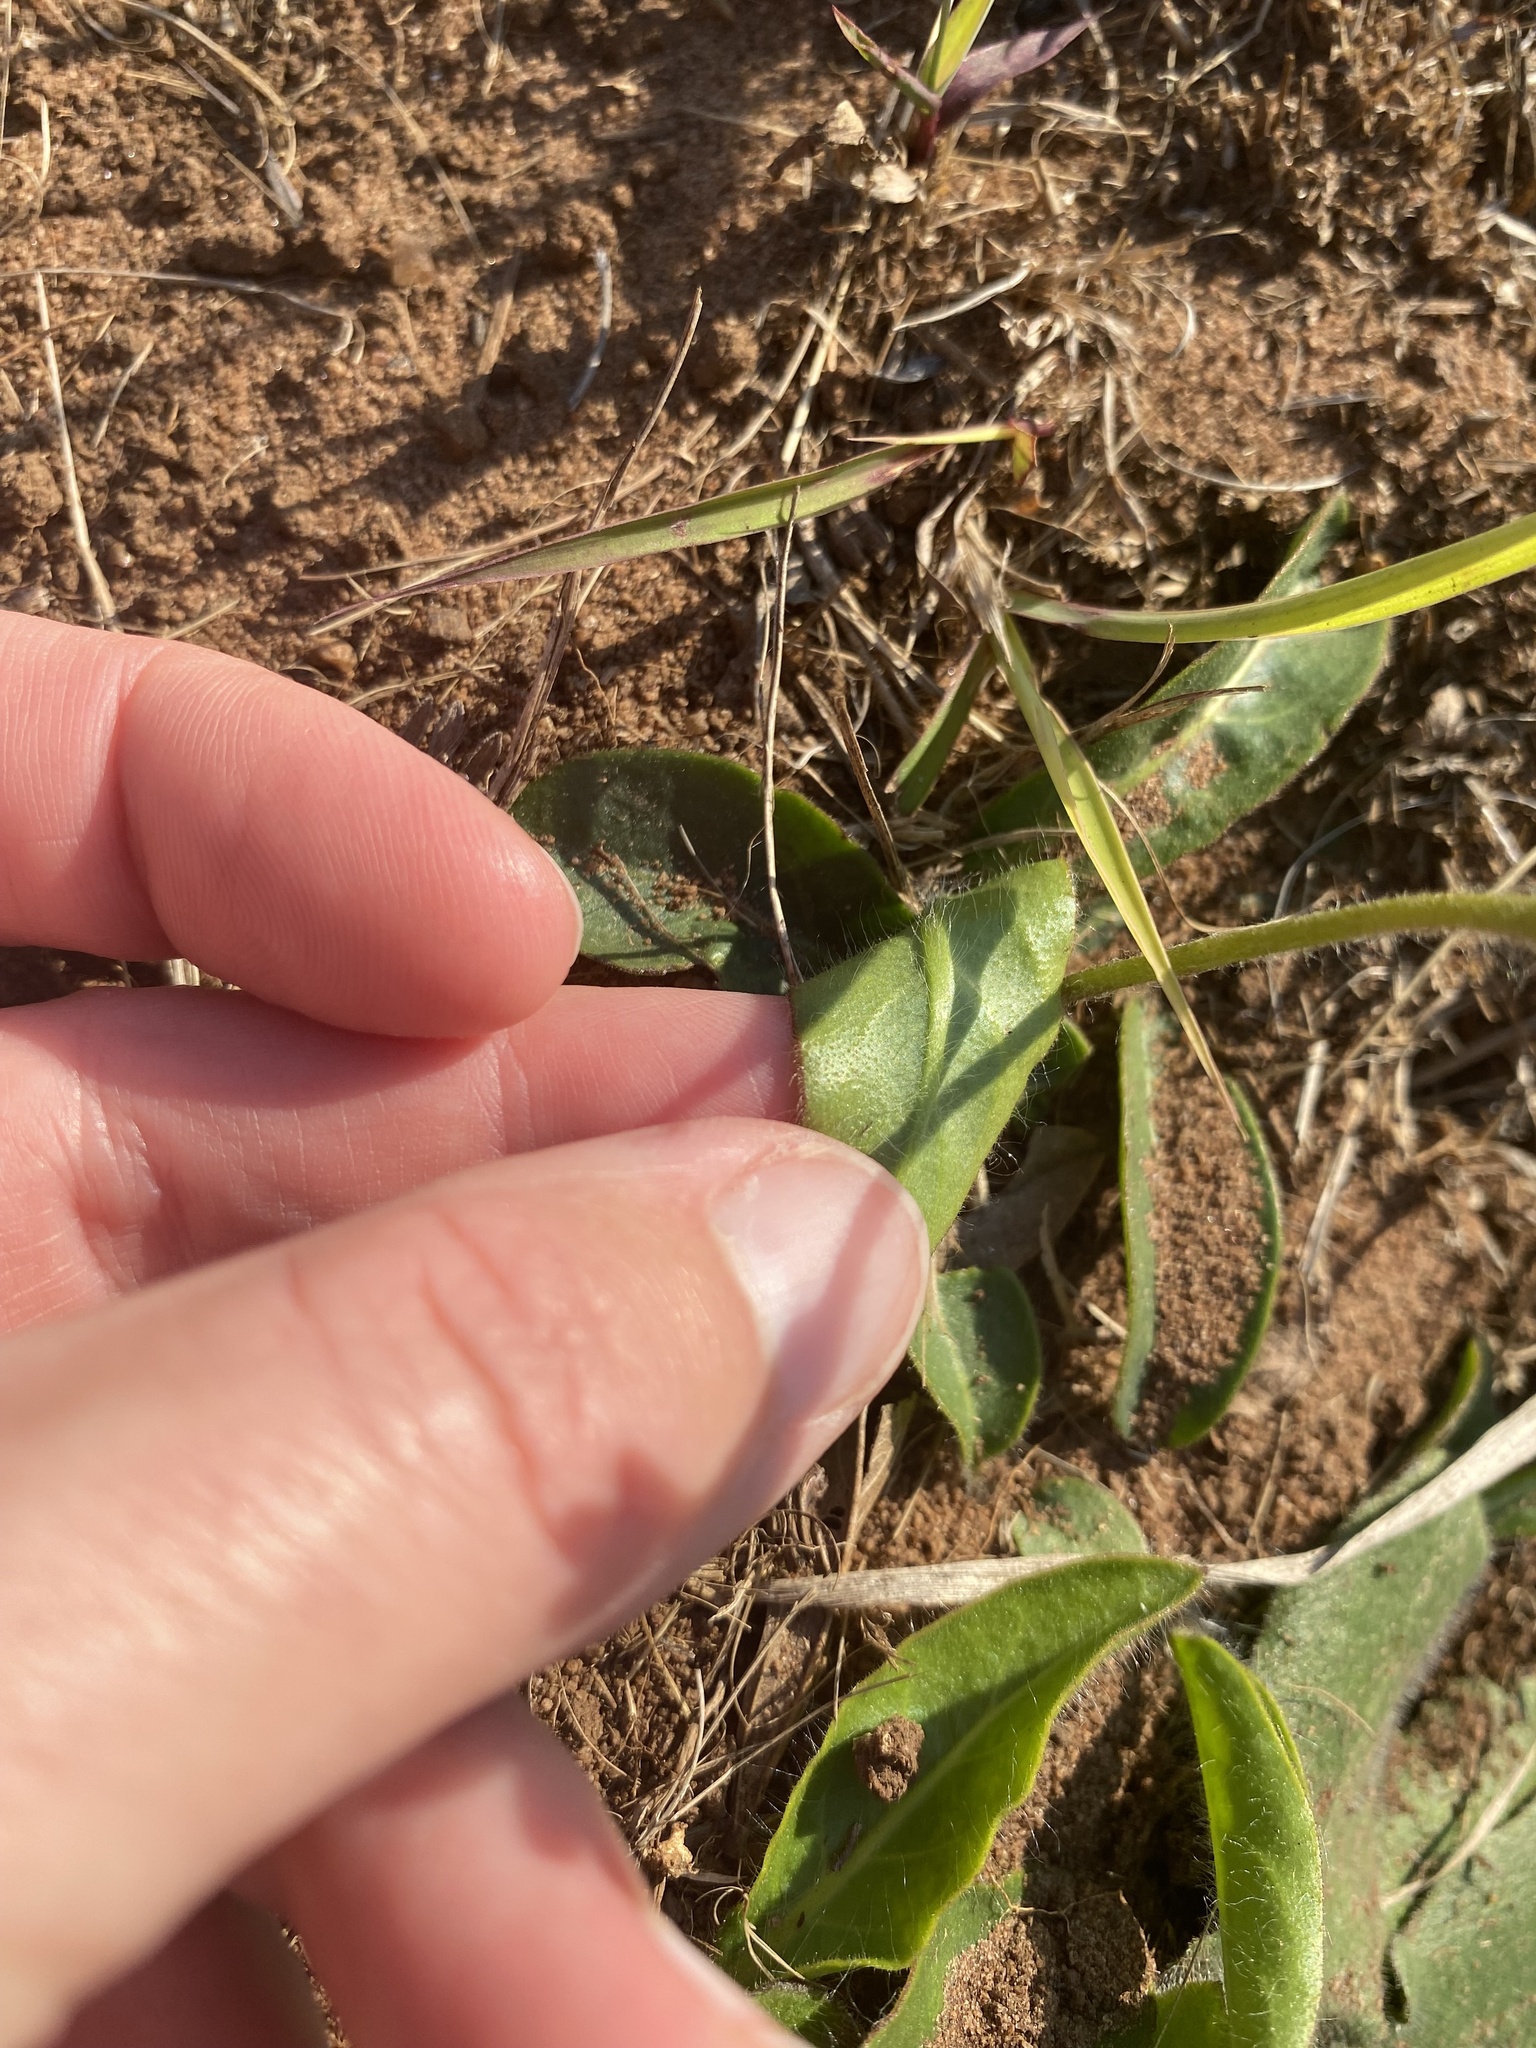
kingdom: Plantae
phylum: Tracheophyta
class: Magnoliopsida
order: Asterales
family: Asteraceae
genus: Gerbera
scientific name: Gerbera ambigua
